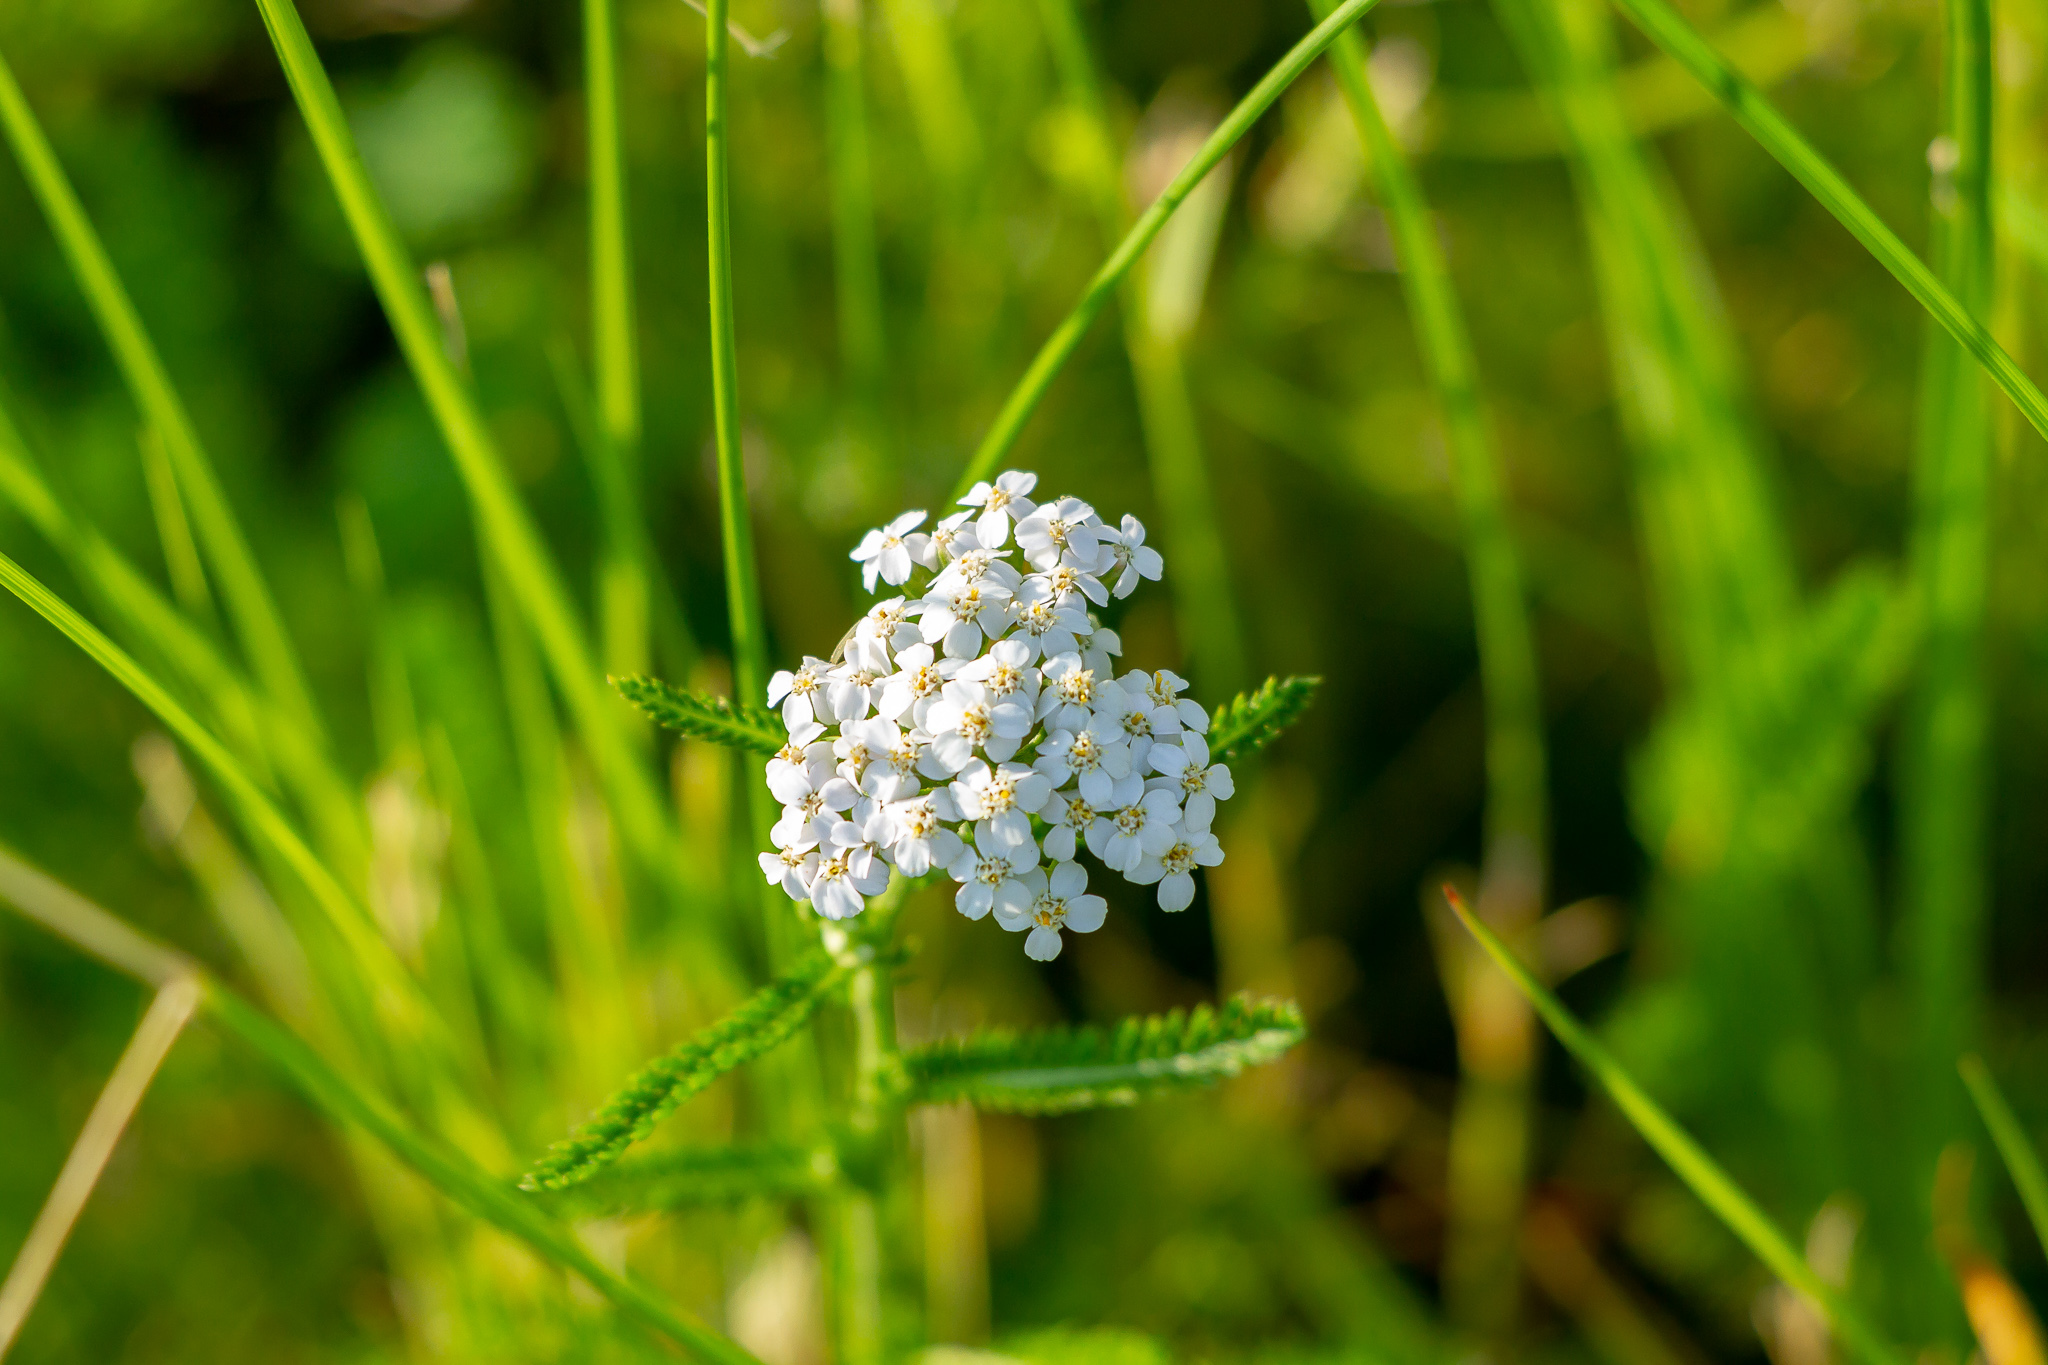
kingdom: Plantae
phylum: Tracheophyta
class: Magnoliopsida
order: Asterales
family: Asteraceae
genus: Achillea
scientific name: Achillea millefolium
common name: Yarrow
